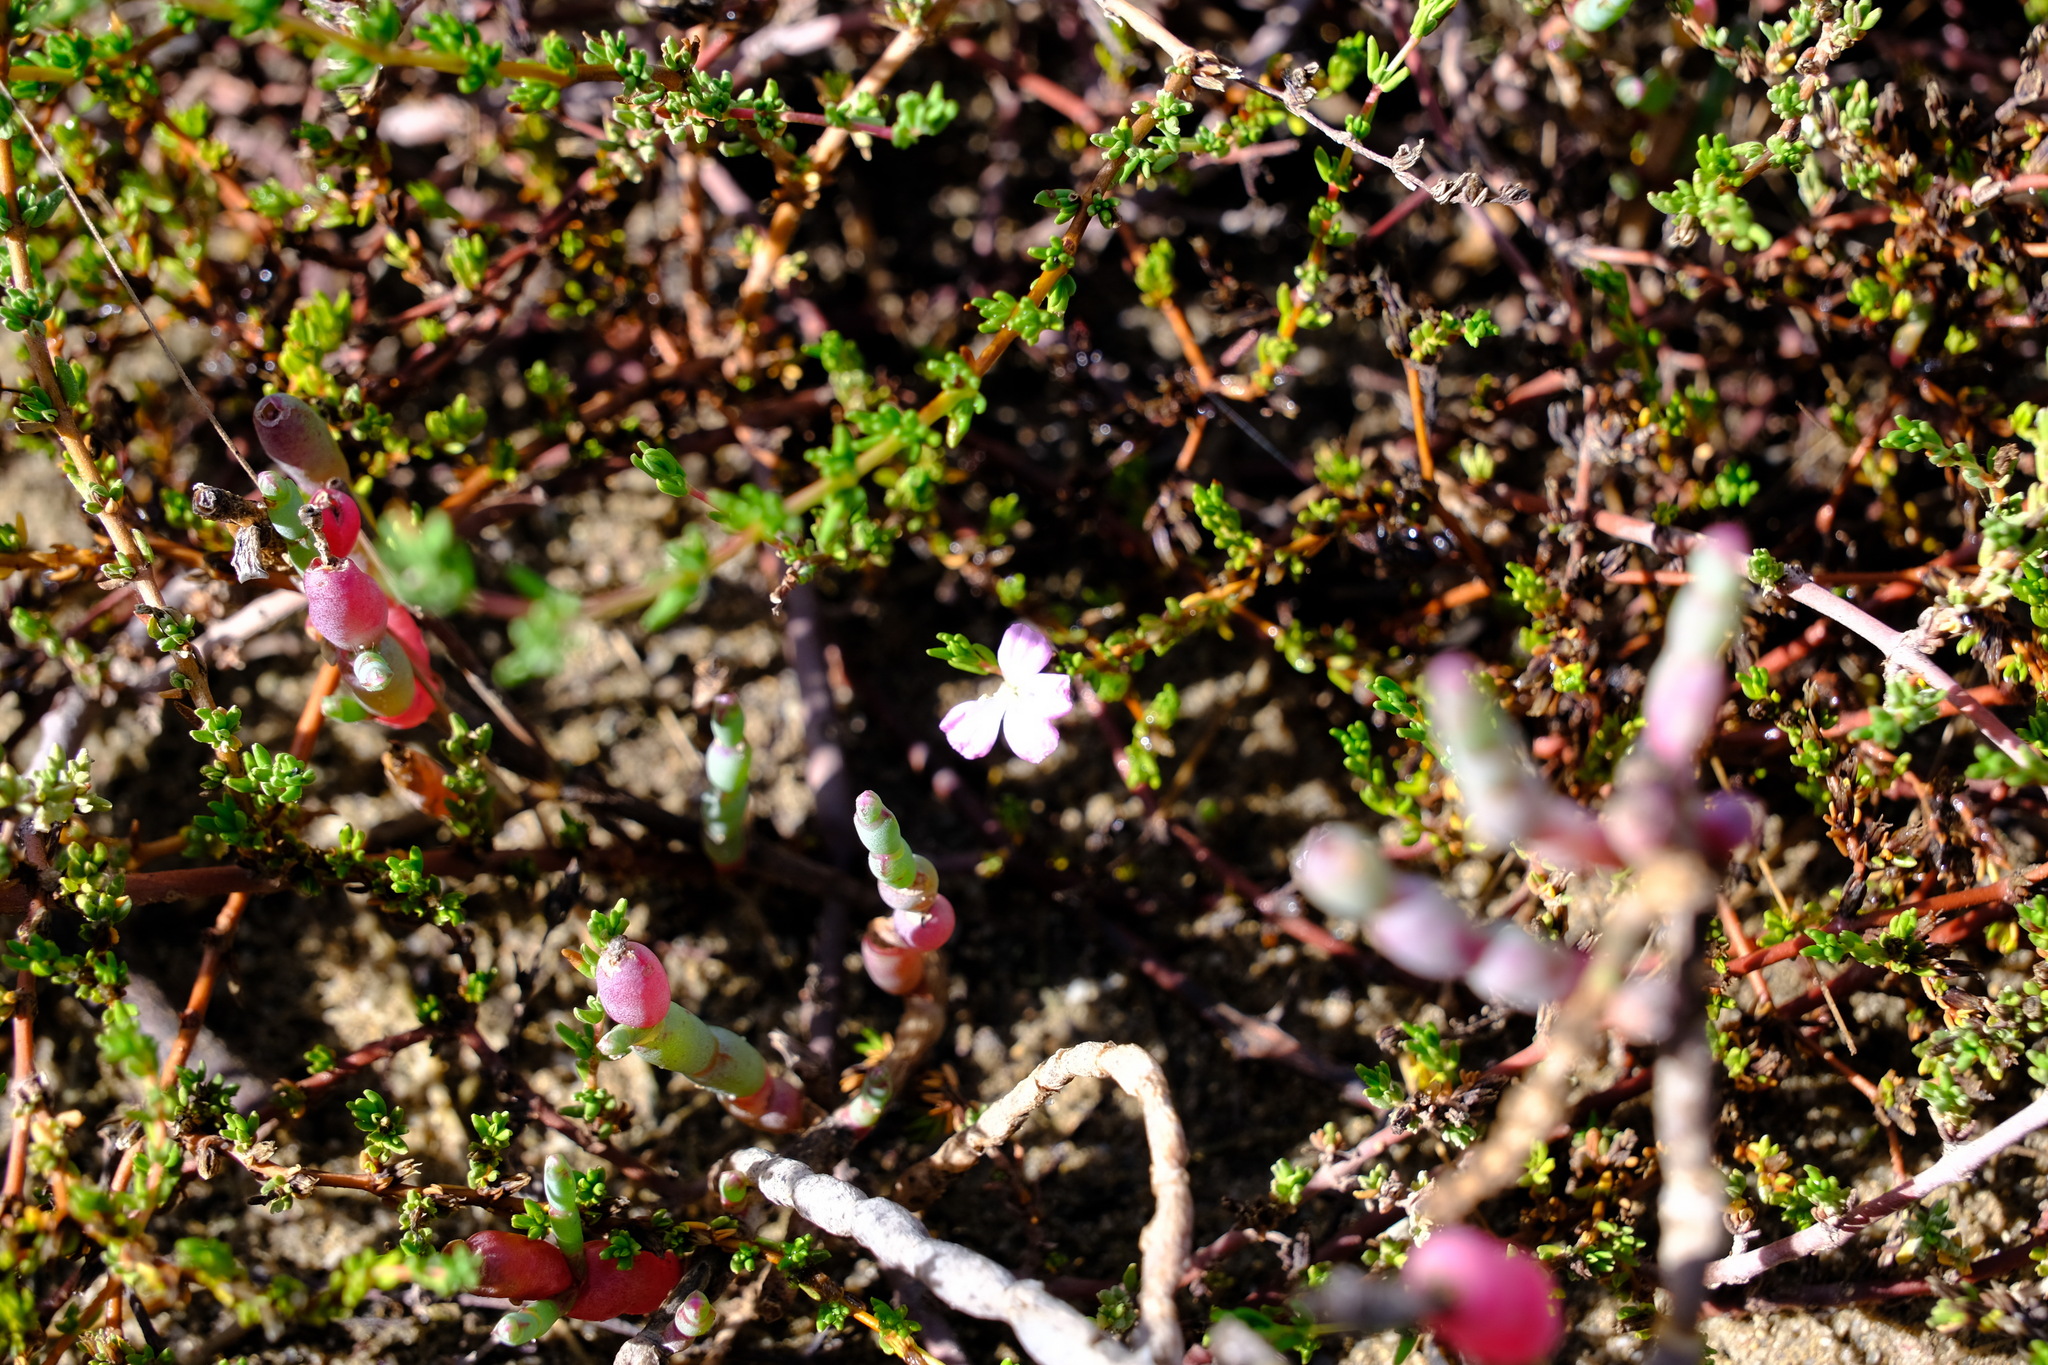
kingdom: Plantae
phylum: Tracheophyta
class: Magnoliopsida
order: Caryophyllales
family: Frankeniaceae
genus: Frankenia
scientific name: Frankenia pauciflora
